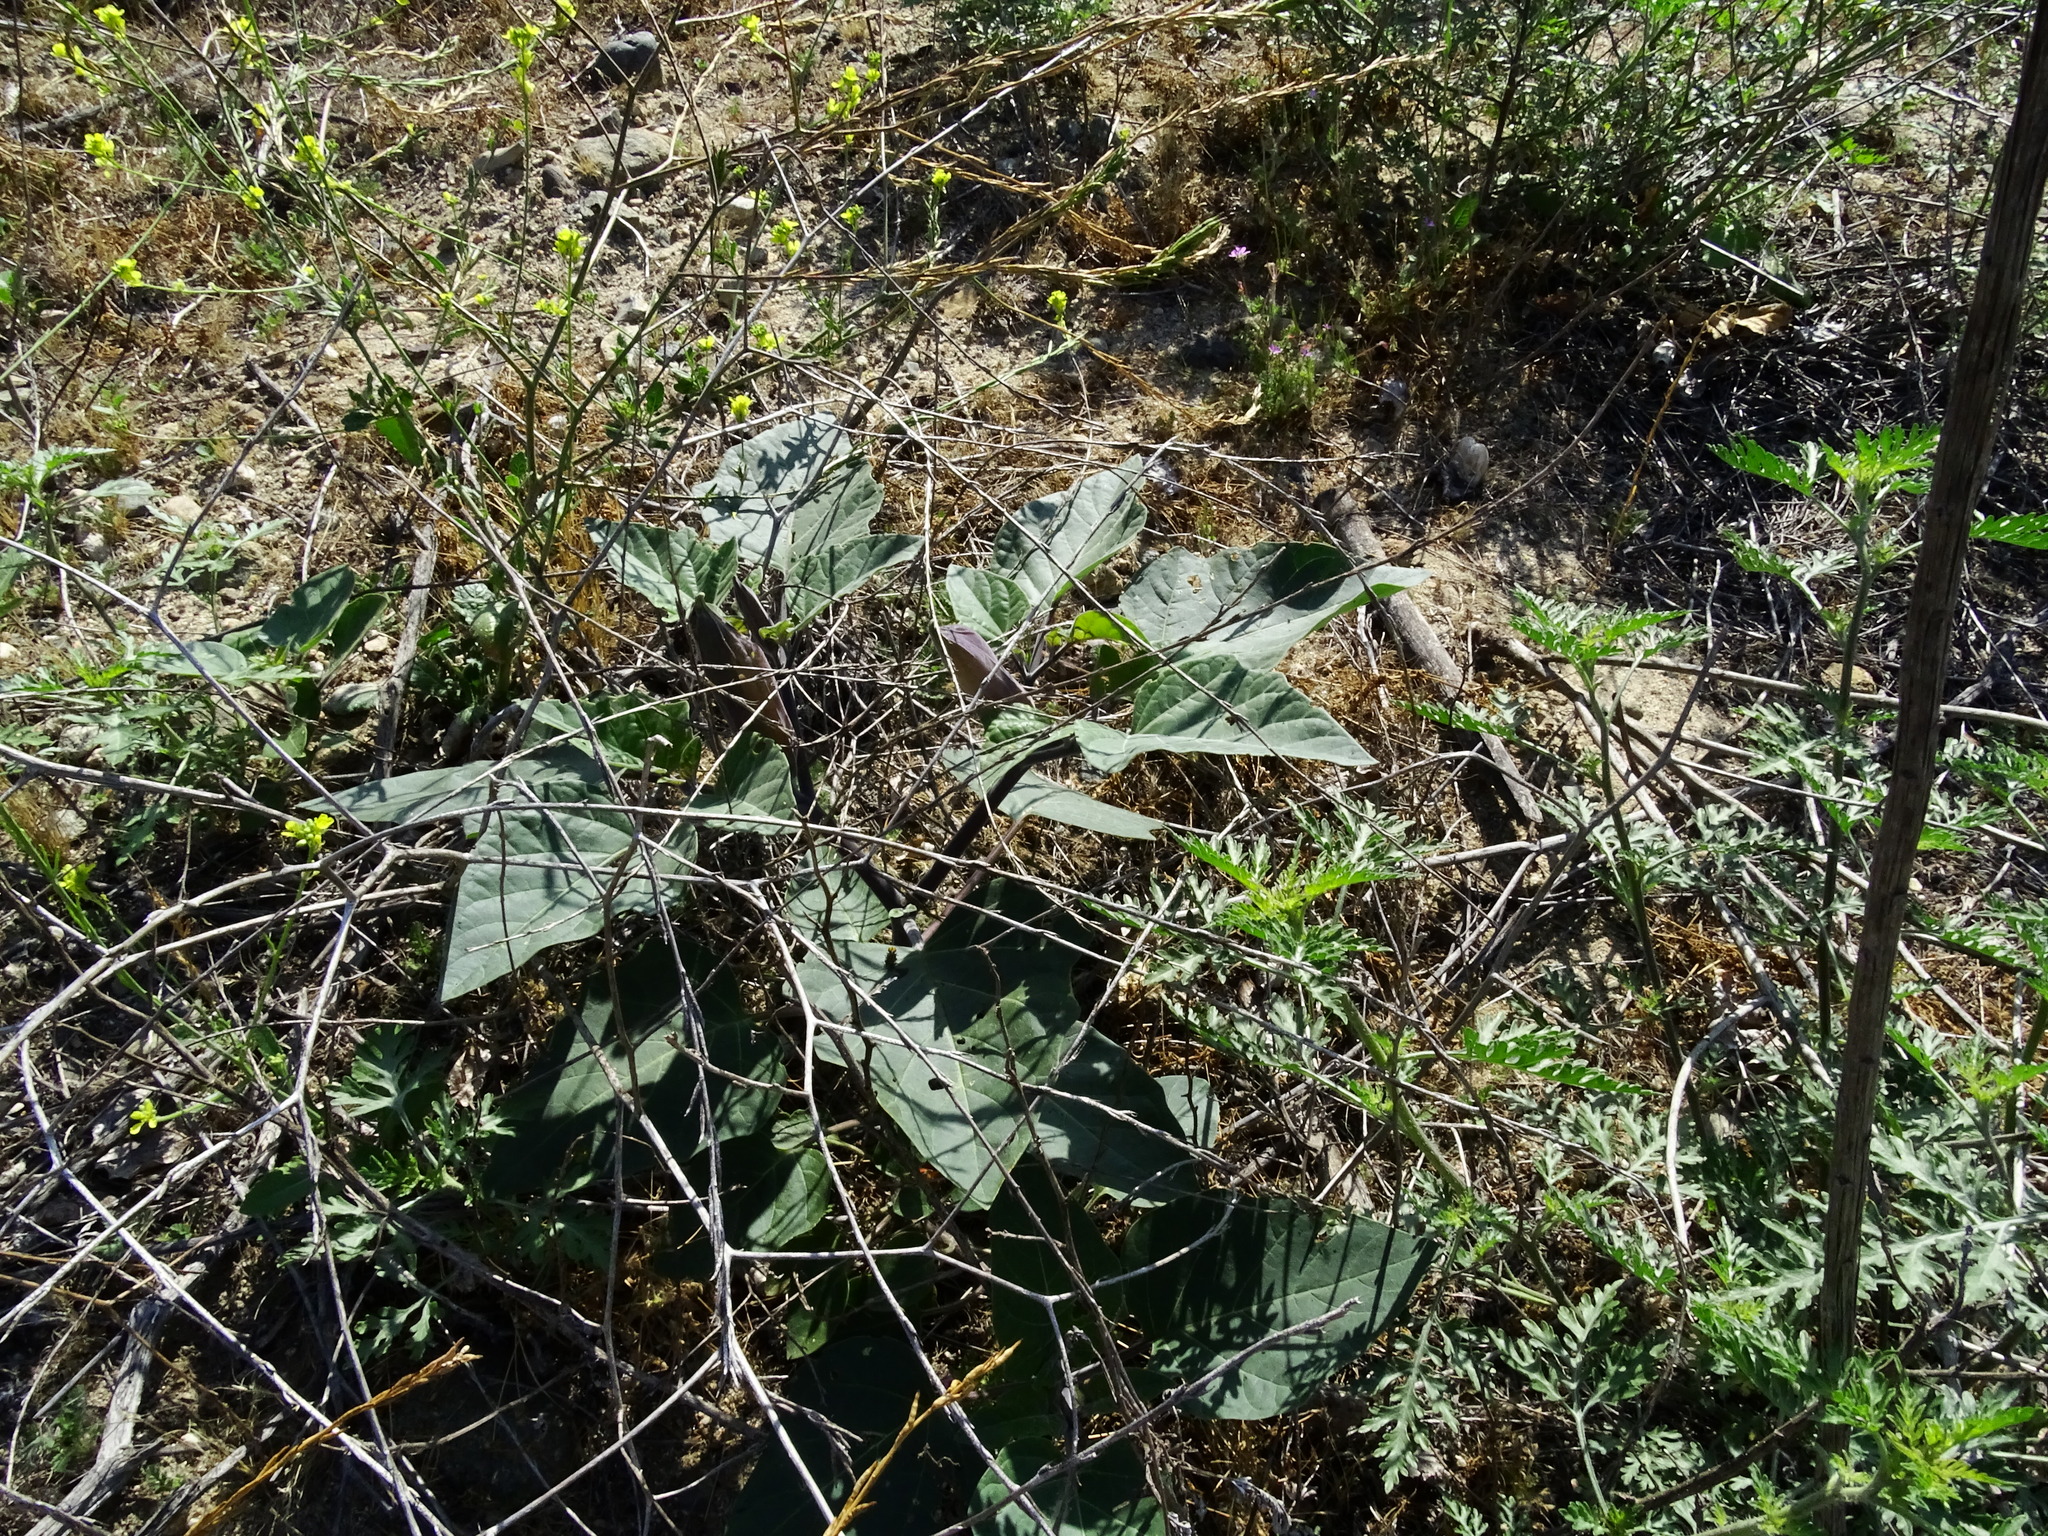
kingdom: Plantae
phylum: Tracheophyta
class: Magnoliopsida
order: Solanales
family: Solanaceae
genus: Datura
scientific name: Datura wrightii
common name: Sacred thorn-apple
